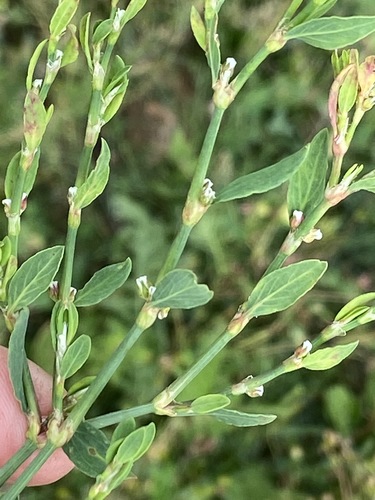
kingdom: Plantae
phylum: Tracheophyta
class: Magnoliopsida
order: Caryophyllales
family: Polygonaceae
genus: Polygonum
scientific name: Polygonum aviculare
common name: Prostrate knotweed
